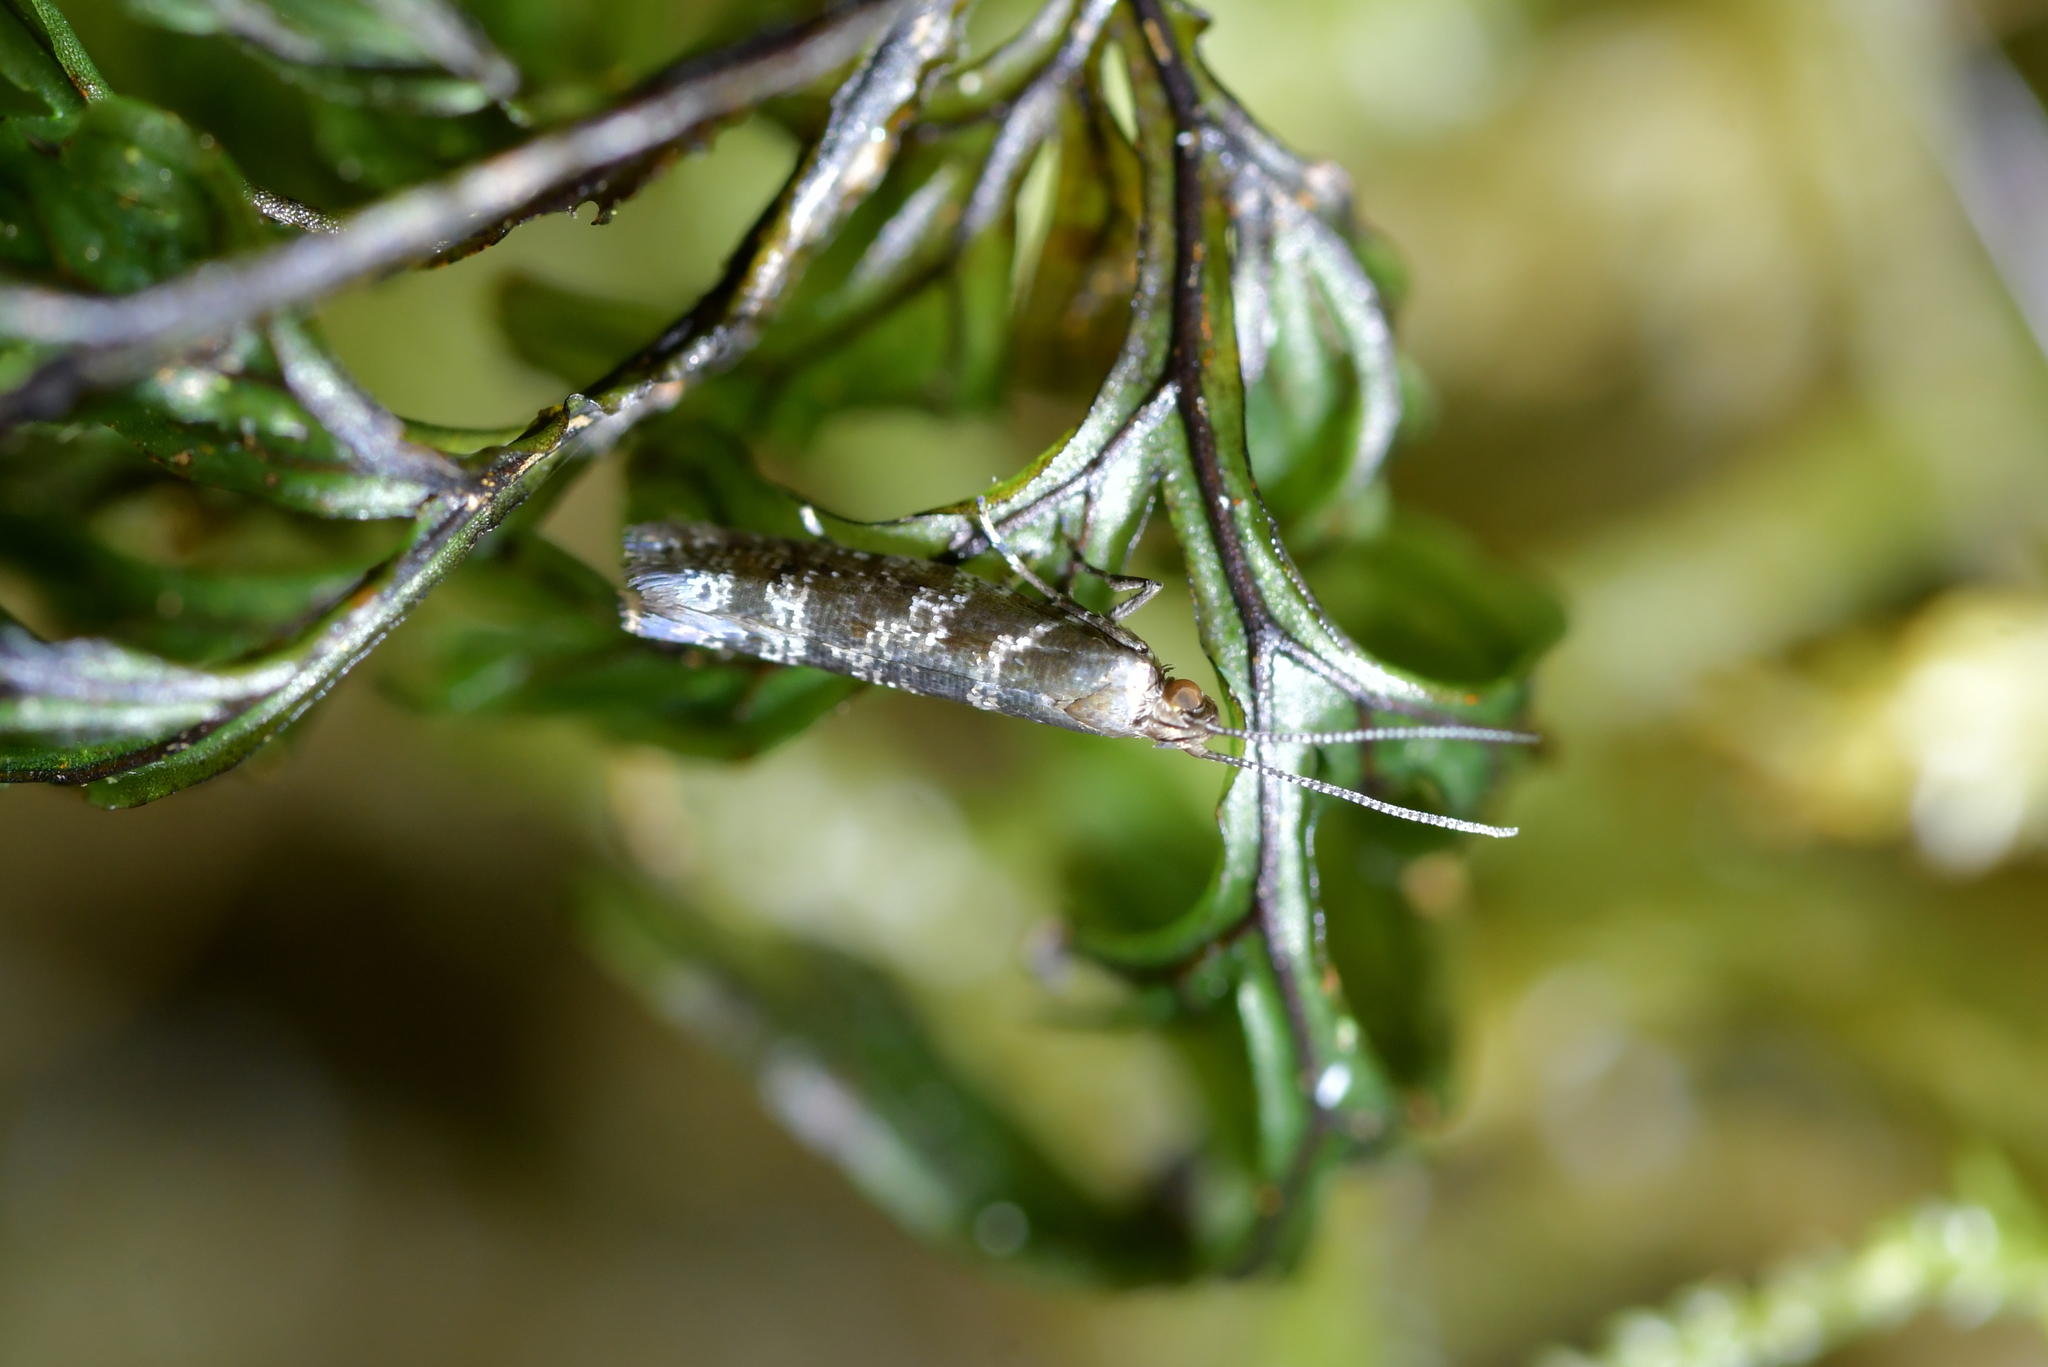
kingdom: Animalia
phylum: Arthropoda
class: Insecta
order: Lepidoptera
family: Glyphipterigidae
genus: Chrysorthenches
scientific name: Chrysorthenches drosochalca
